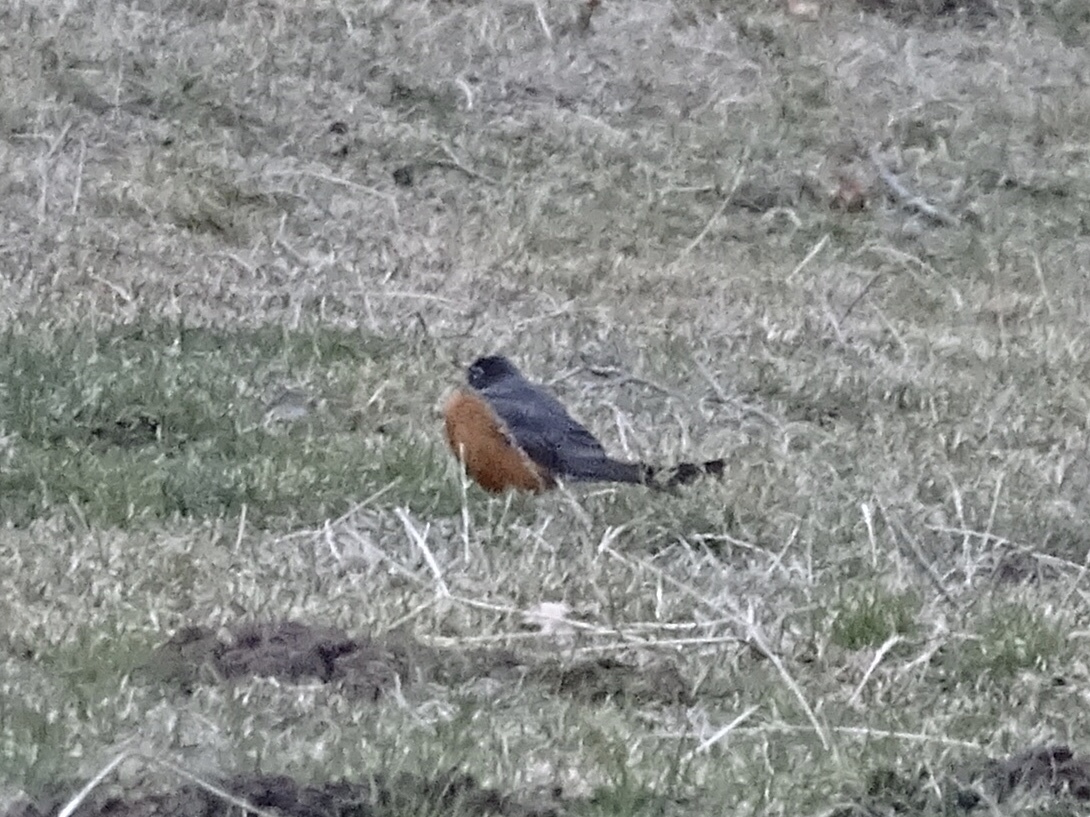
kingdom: Animalia
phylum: Chordata
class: Aves
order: Passeriformes
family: Turdidae
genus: Turdus
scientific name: Turdus migratorius
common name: American robin
